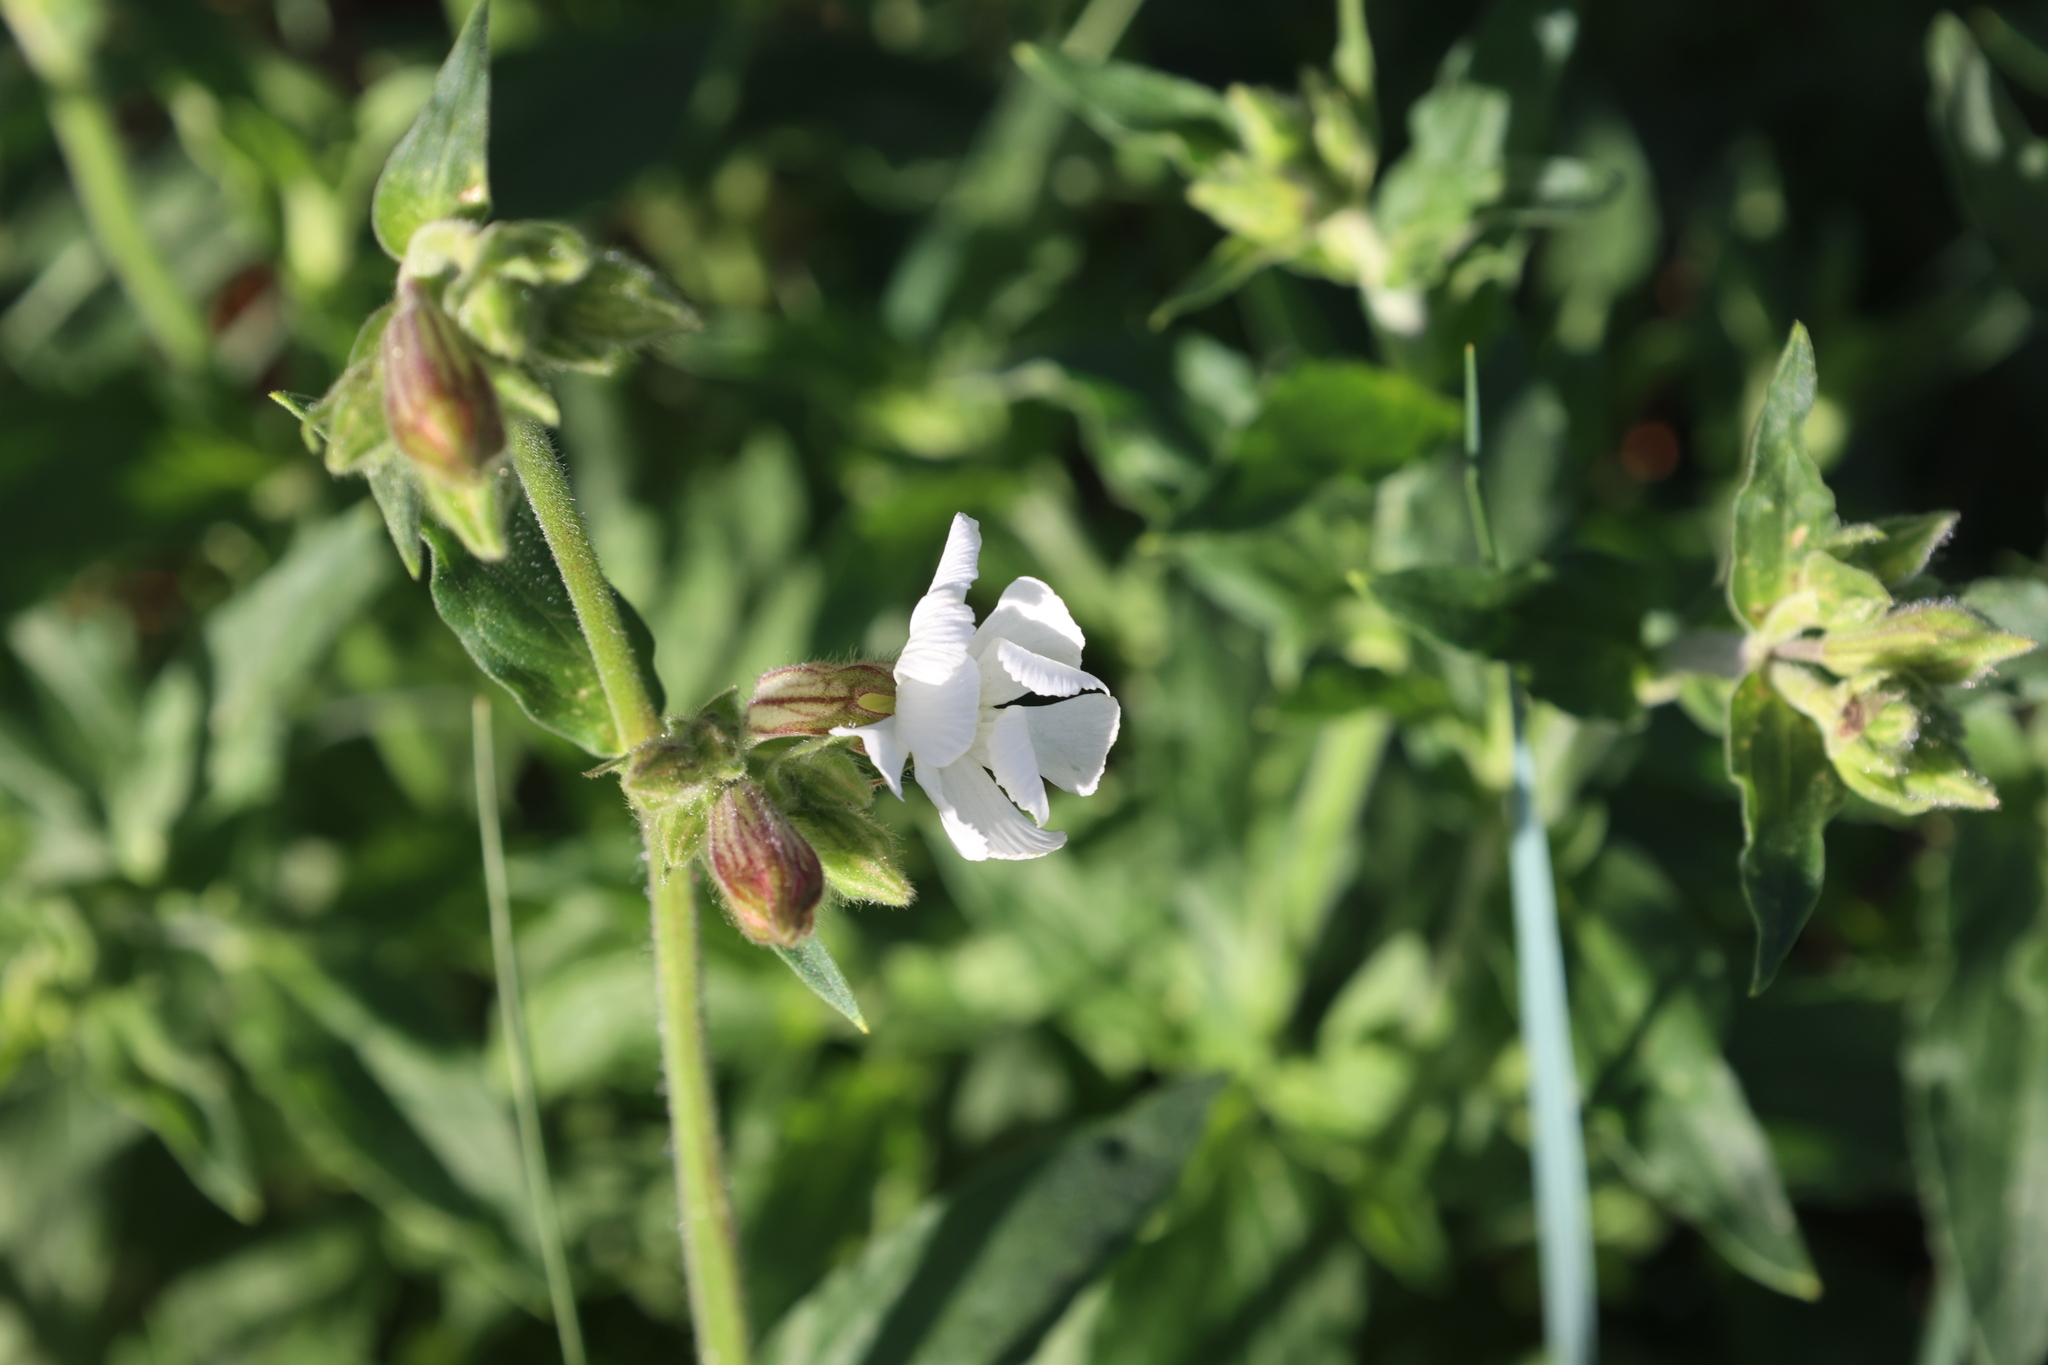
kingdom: Plantae
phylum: Tracheophyta
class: Magnoliopsida
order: Caryophyllales
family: Caryophyllaceae
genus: Silene
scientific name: Silene latifolia
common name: White campion
